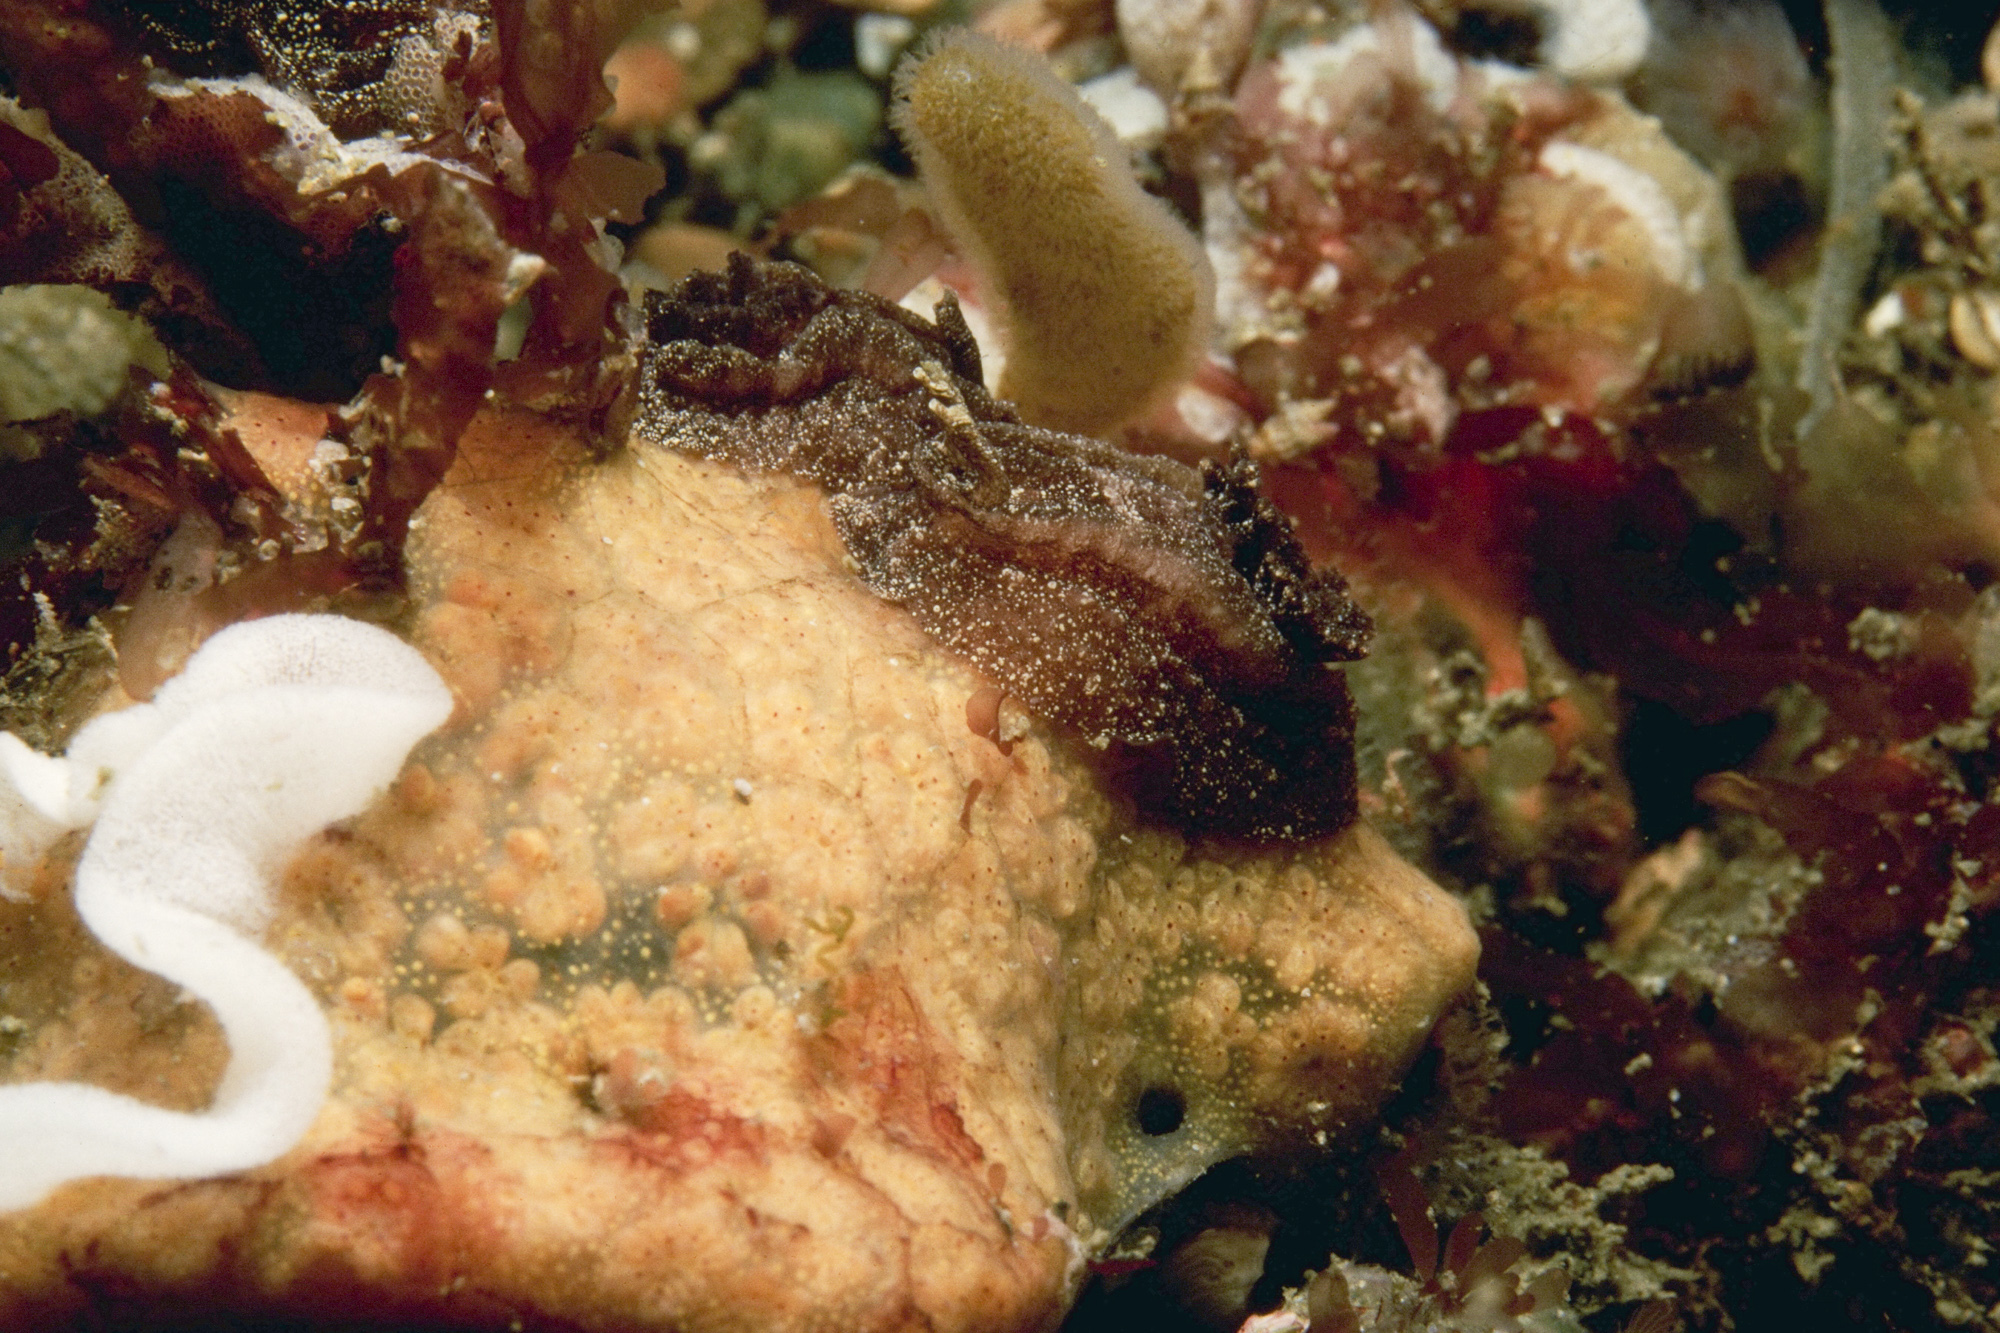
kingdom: Animalia
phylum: Mollusca
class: Gastropoda
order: Nudibranchia
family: Goniodorididae
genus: Pelagella
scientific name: Pelagella castanea
